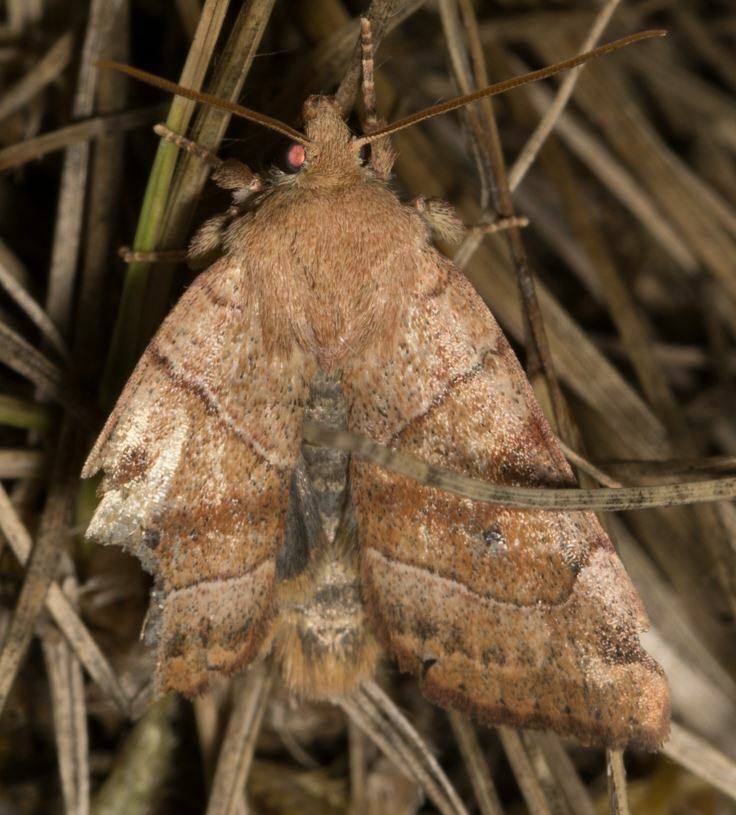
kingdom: Animalia
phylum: Arthropoda
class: Insecta
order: Lepidoptera
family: Noctuidae
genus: Cosmia
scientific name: Cosmia trapezina
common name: Dun-bar
